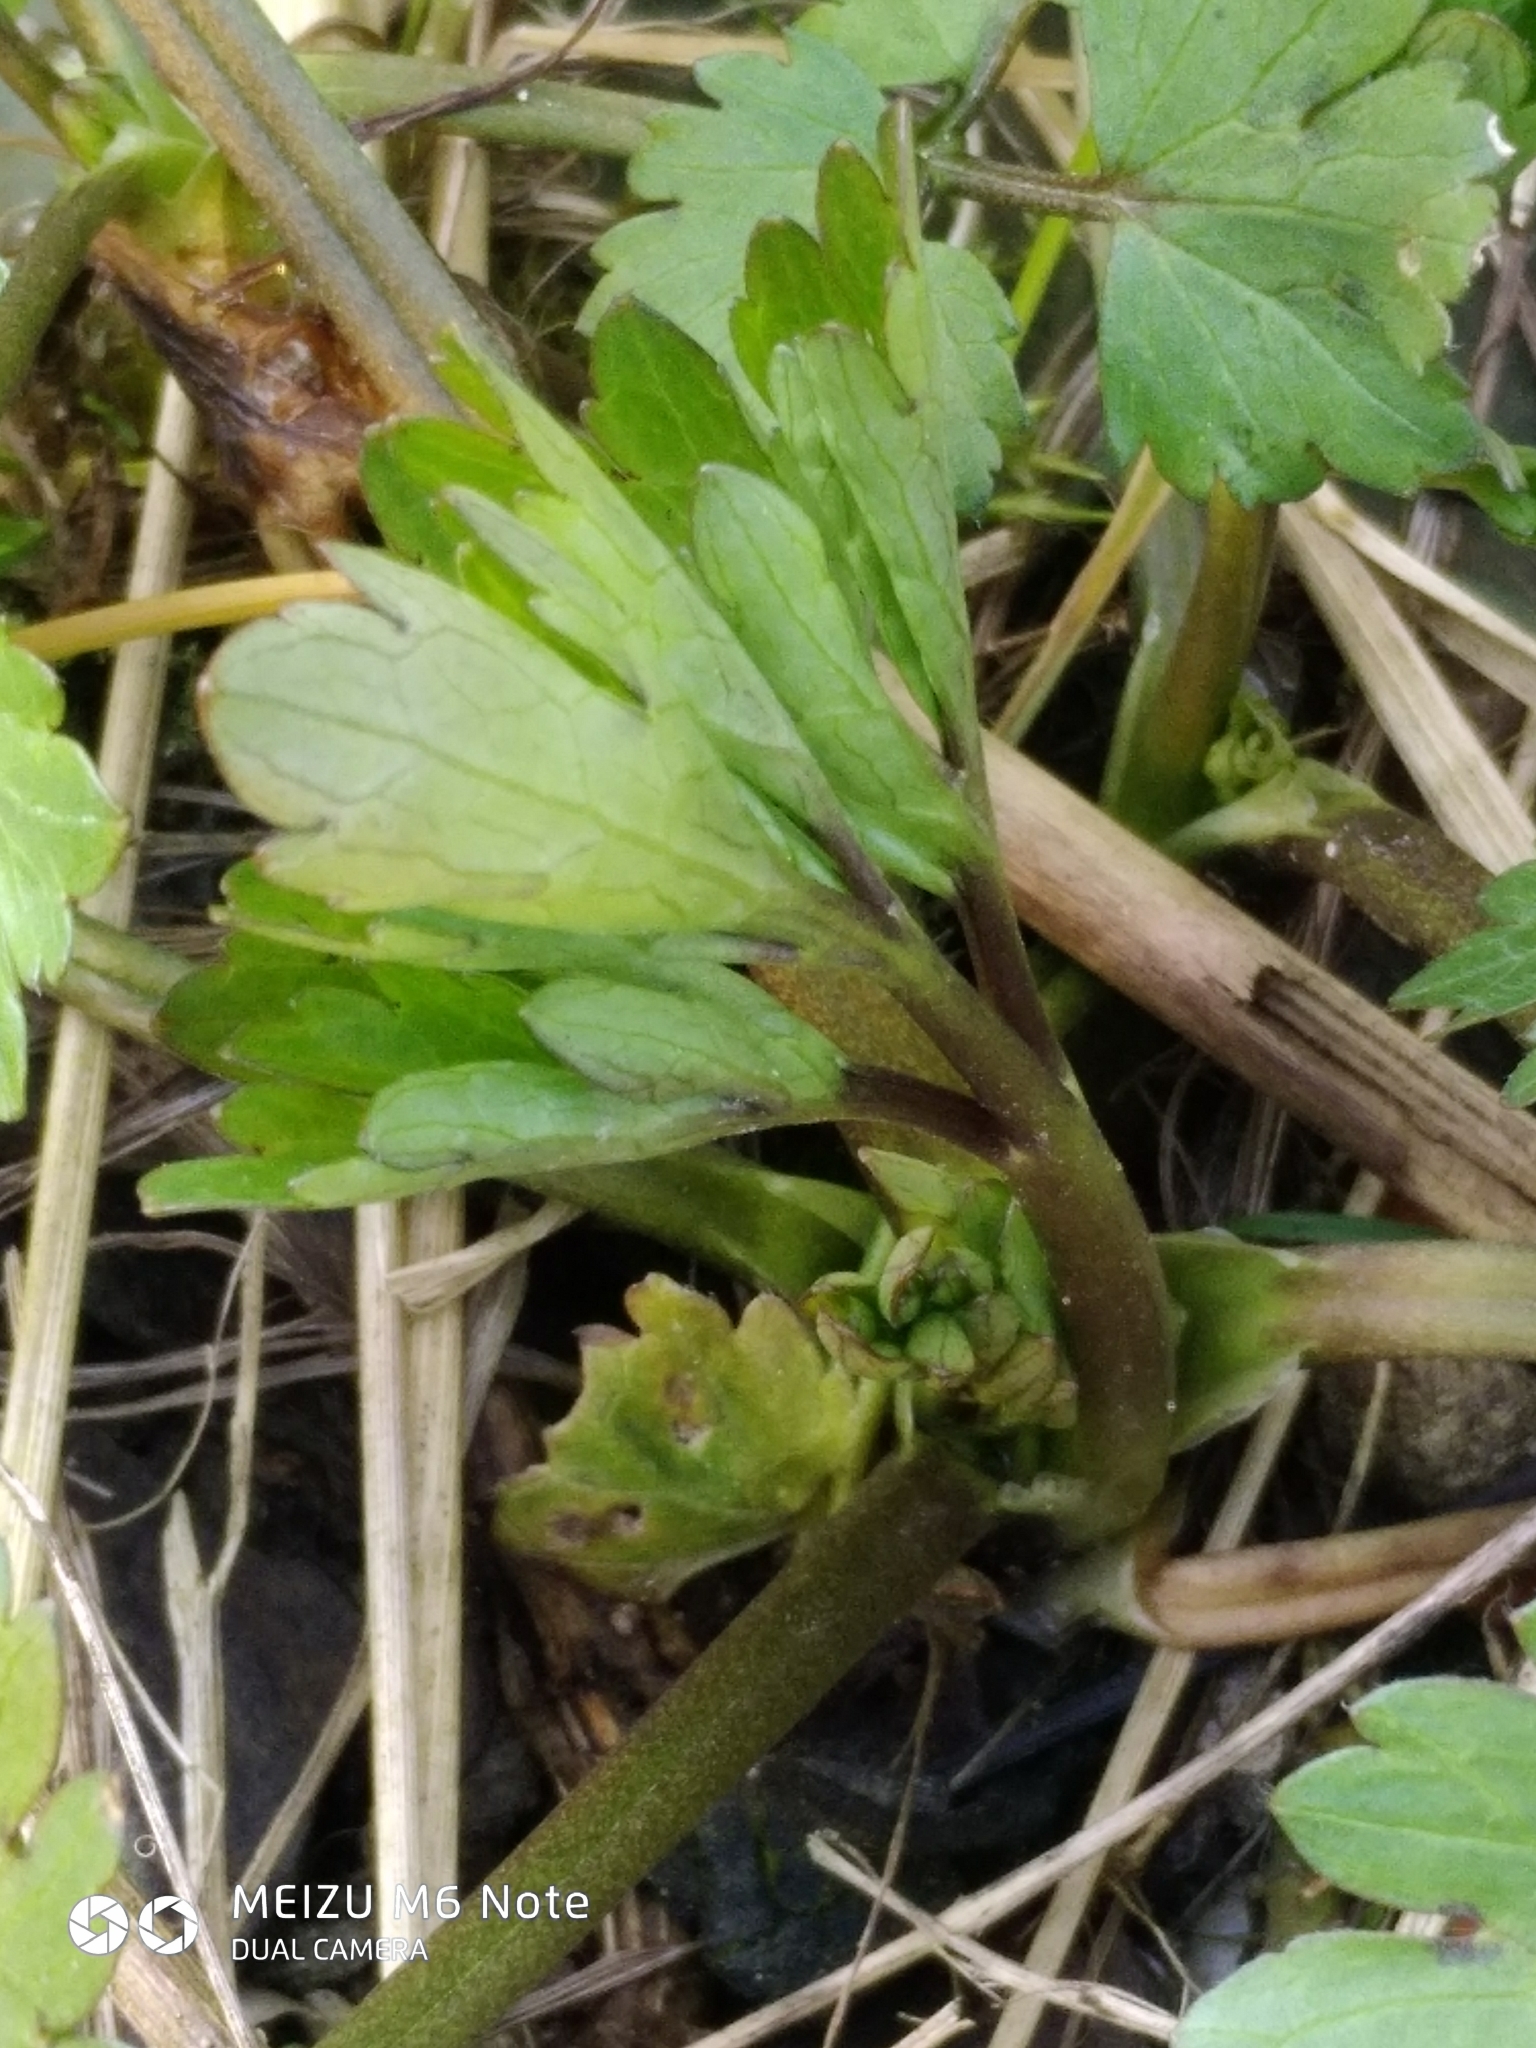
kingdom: Plantae
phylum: Tracheophyta
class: Magnoliopsida
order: Ranunculales
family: Ranunculaceae
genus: Ranunculus
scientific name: Ranunculus repens
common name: Creeping buttercup
